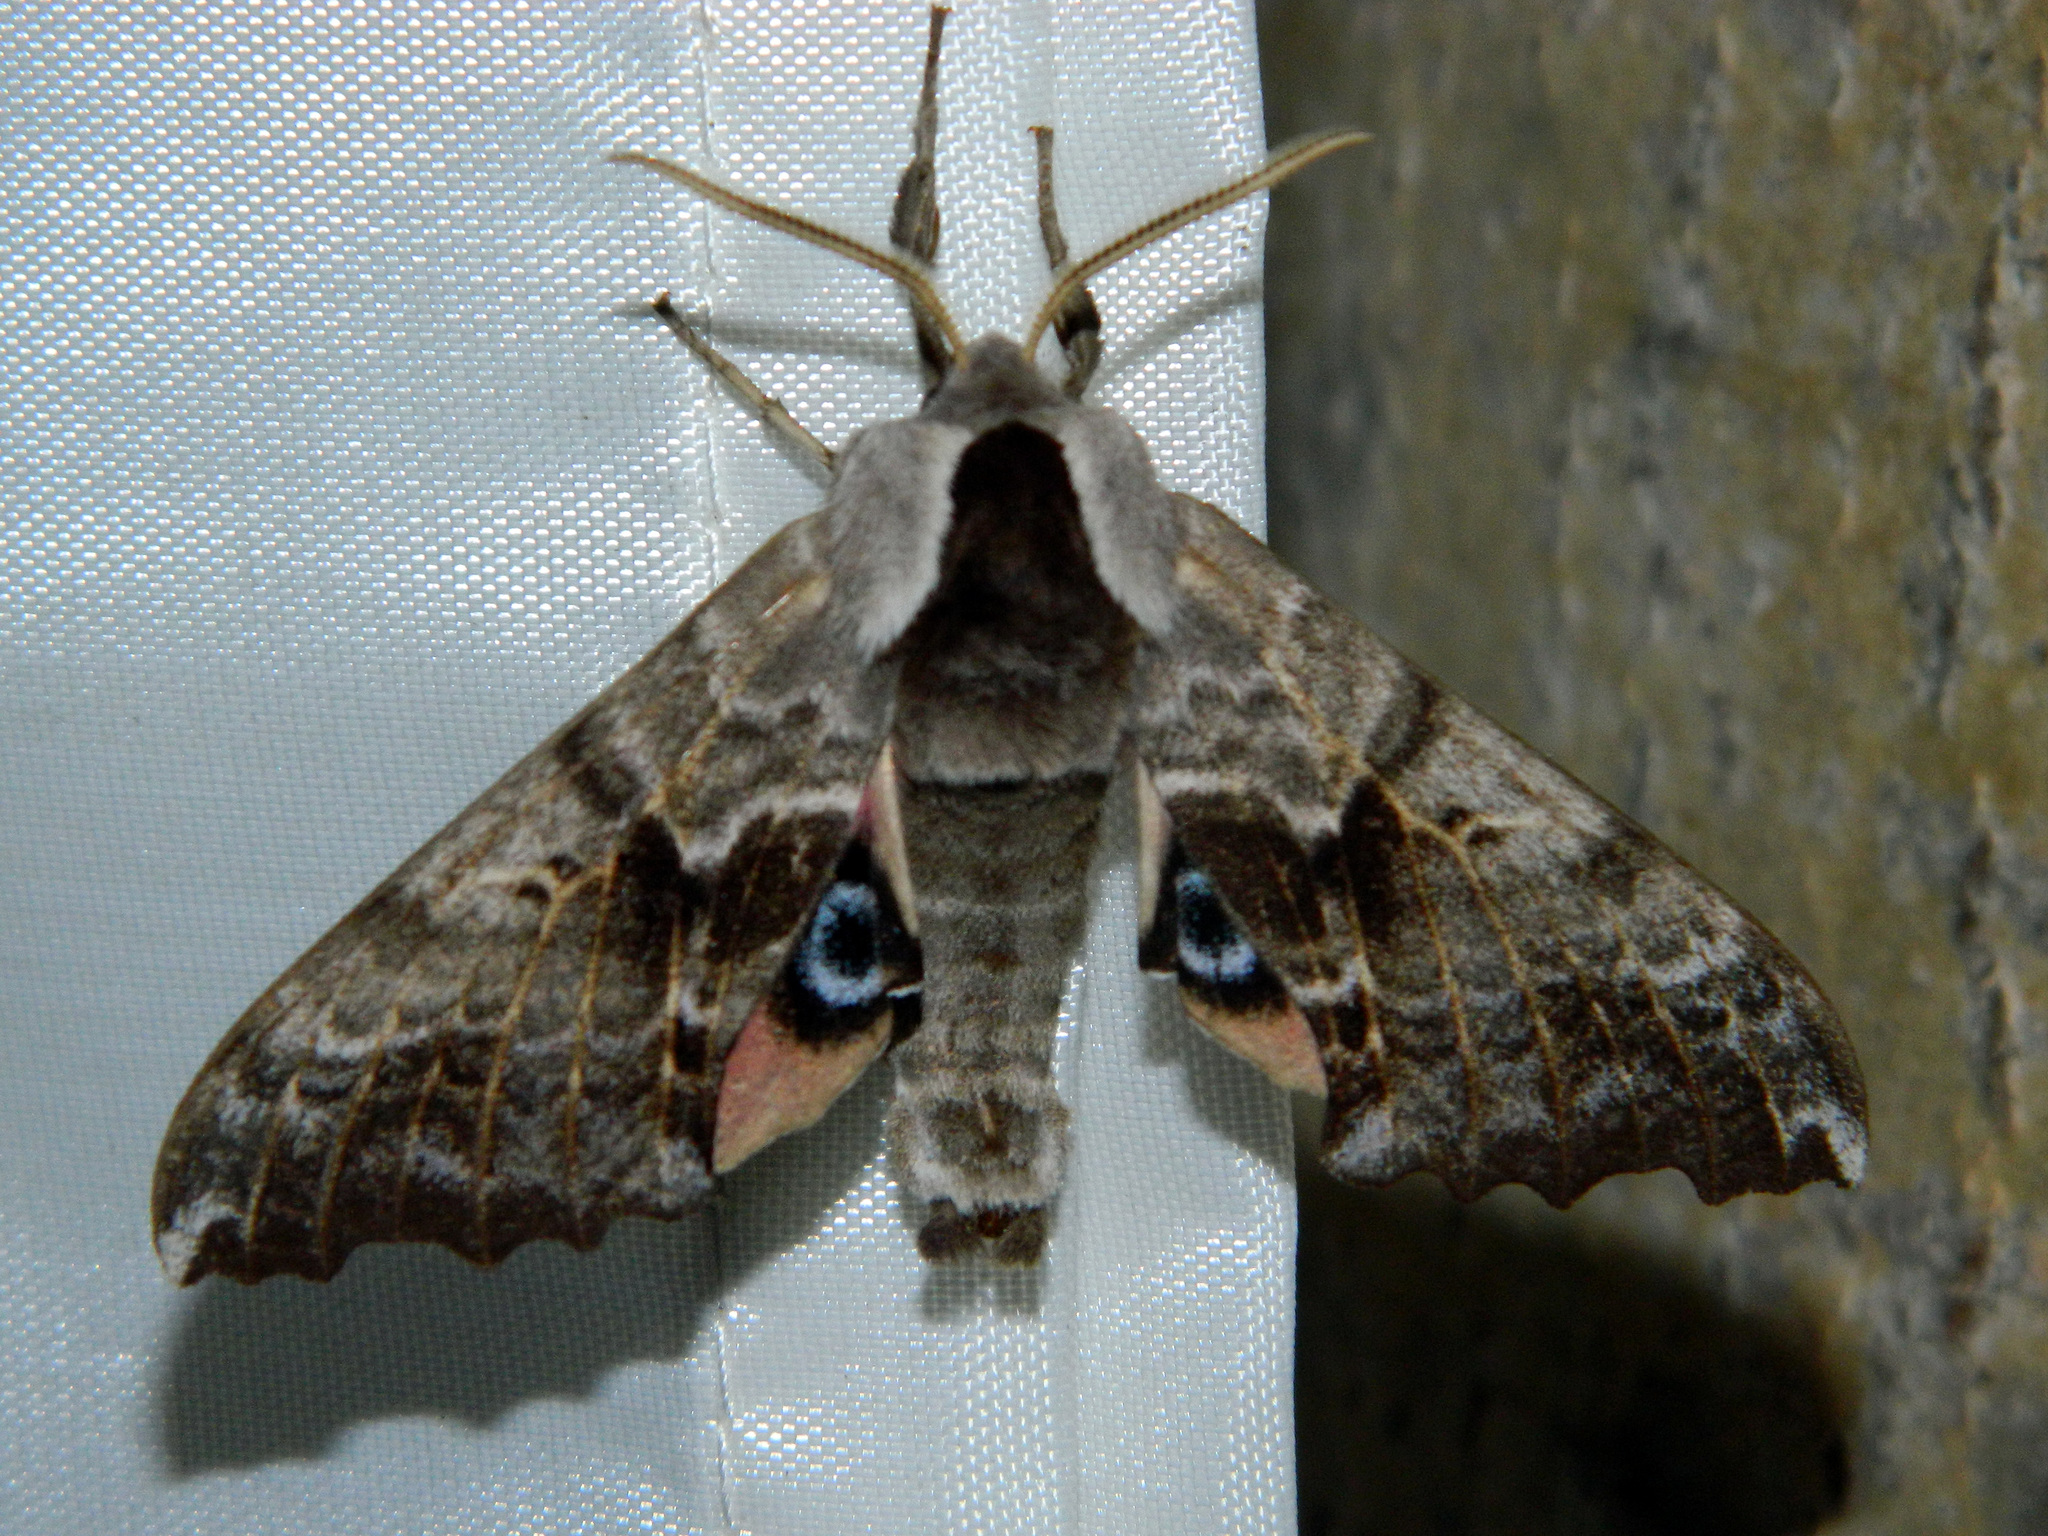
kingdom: Animalia
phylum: Arthropoda
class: Insecta
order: Lepidoptera
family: Sphingidae
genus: Smerinthus
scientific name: Smerinthus cerisyi
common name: Cerisy's sphinx moth
